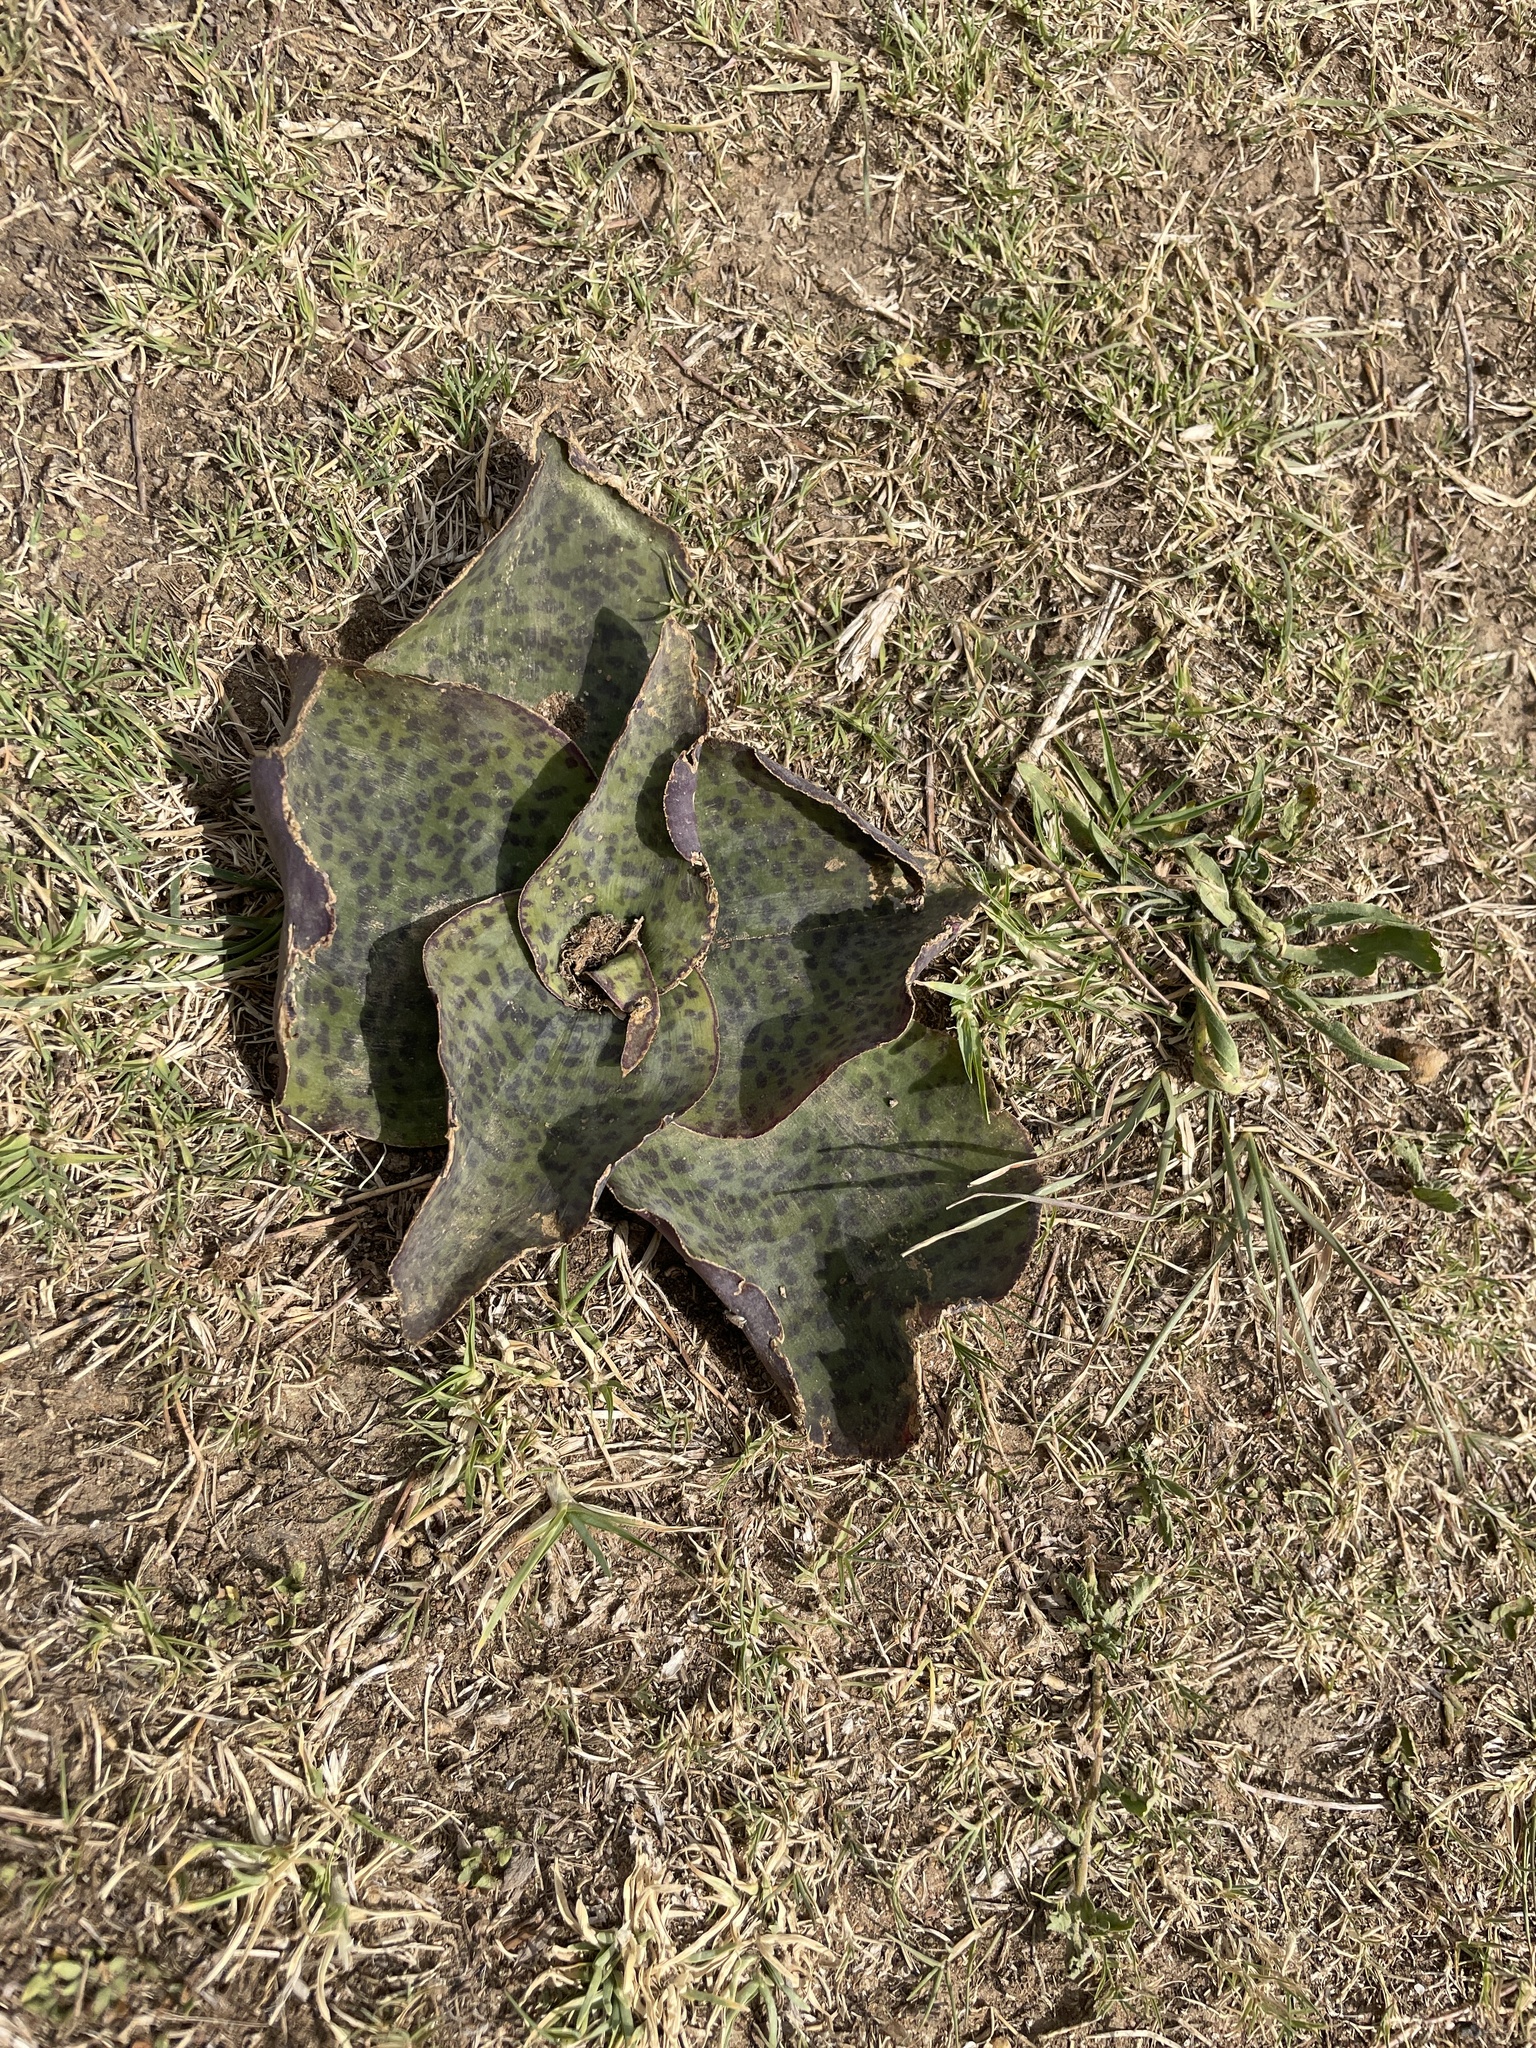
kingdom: Plantae
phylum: Tracheophyta
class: Liliopsida
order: Asparagales
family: Asparagaceae
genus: Ledebouria
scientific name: Ledebouria ovatifolia
